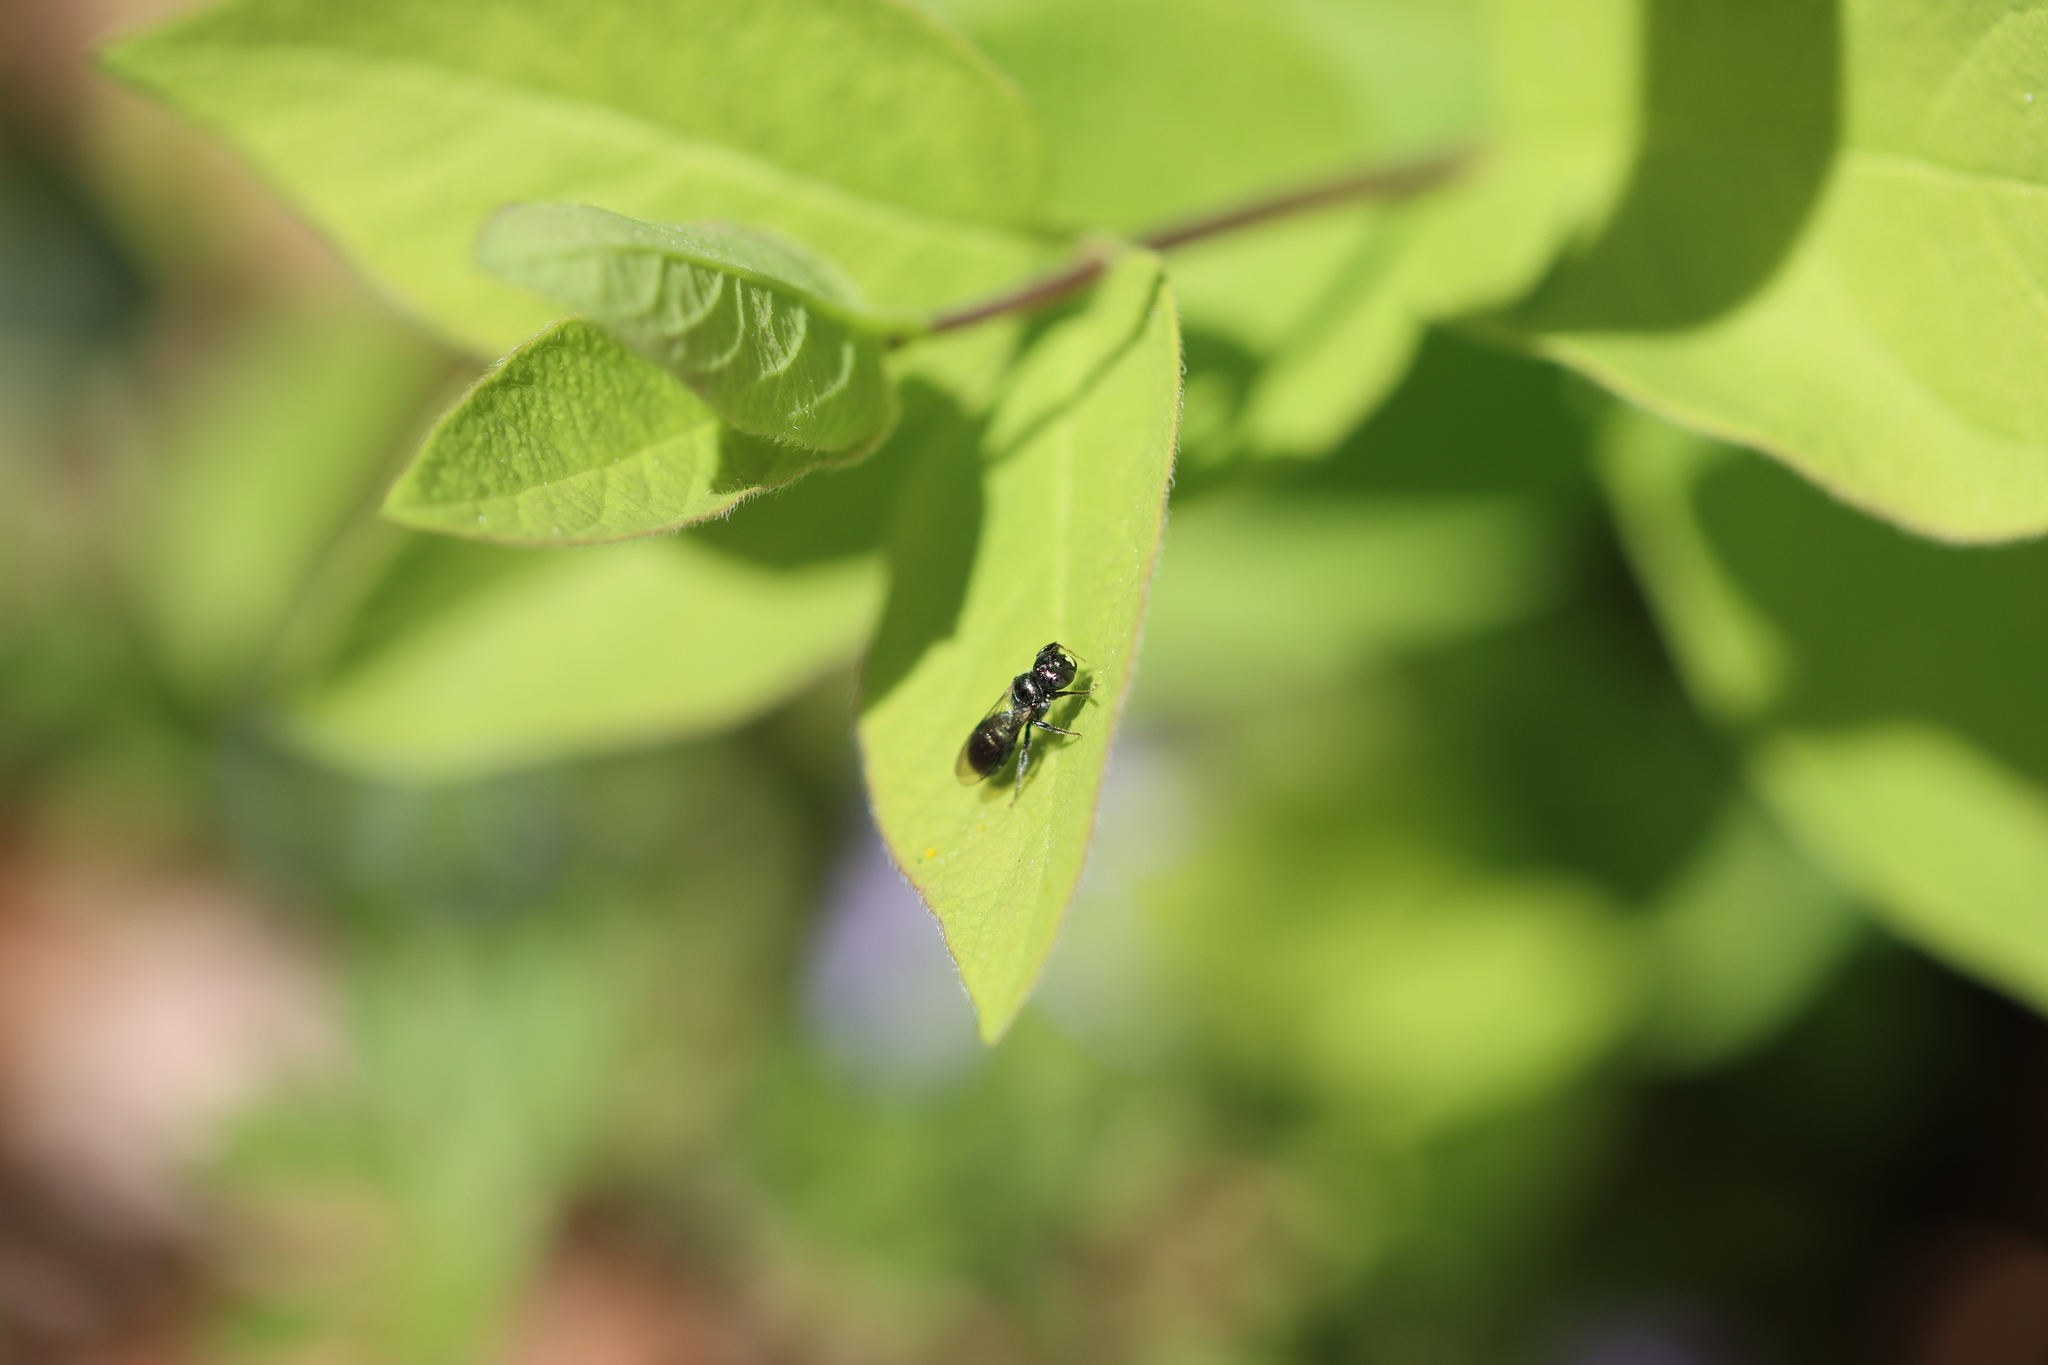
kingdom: Animalia
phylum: Arthropoda
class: Insecta
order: Hymenoptera
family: Apidae
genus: Zadontomerus
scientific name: Zadontomerus
